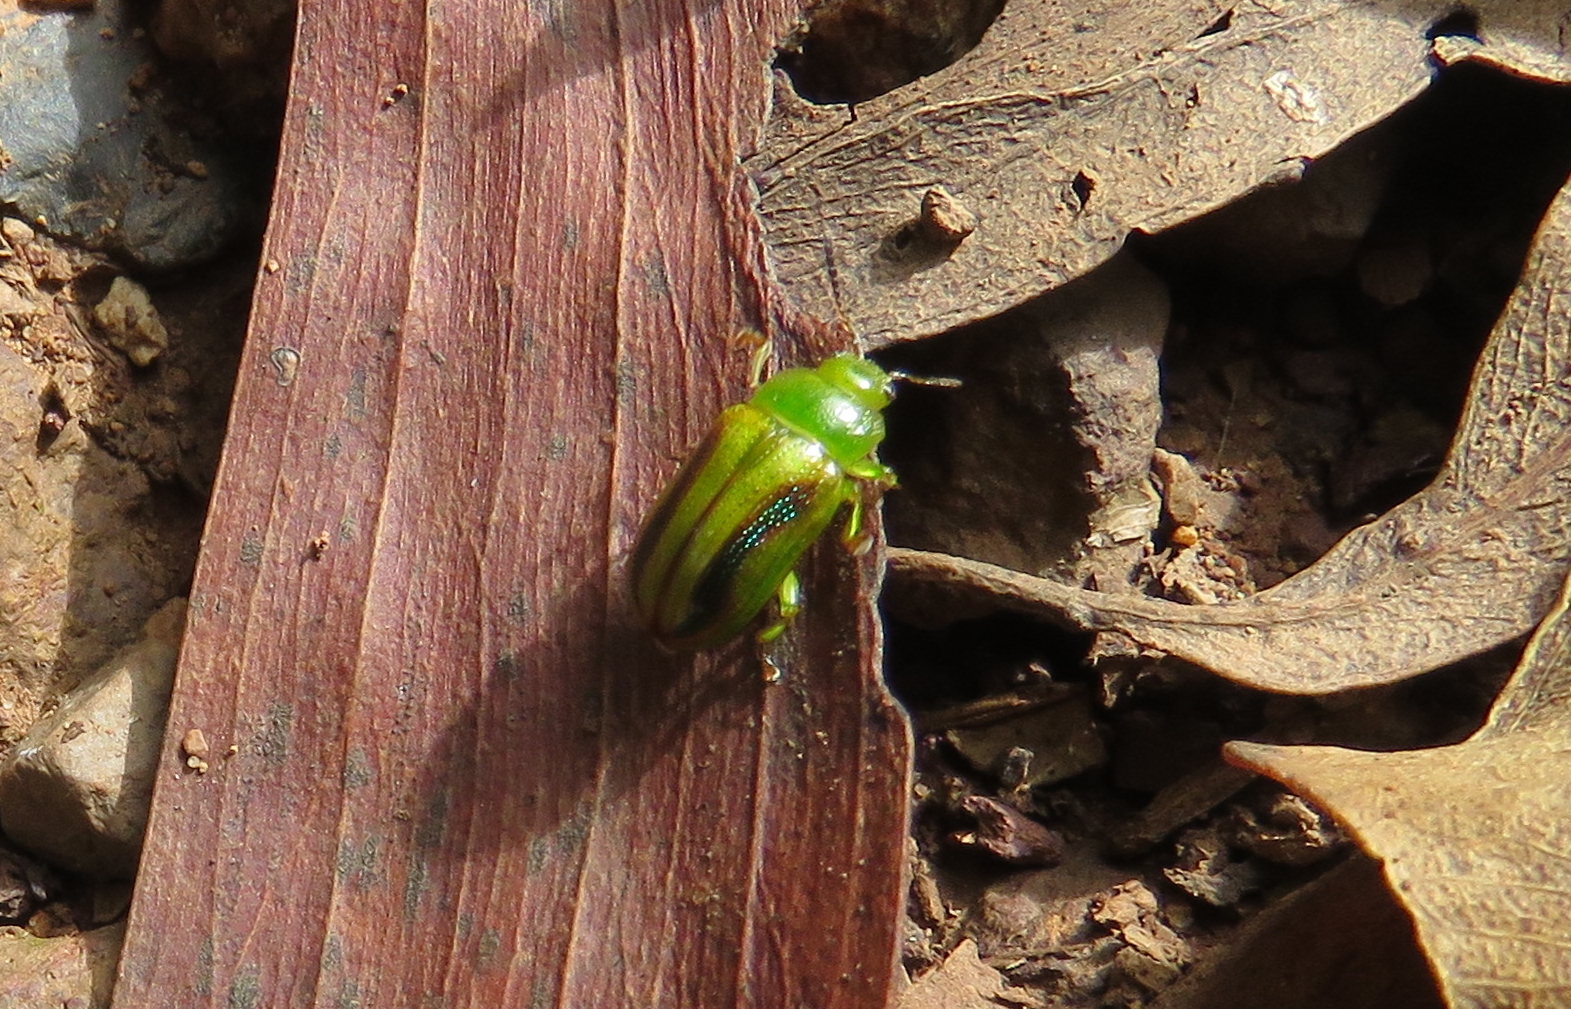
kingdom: Animalia
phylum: Arthropoda
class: Insecta
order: Coleoptera
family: Chrysomelidae
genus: Calomela
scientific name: Calomela
